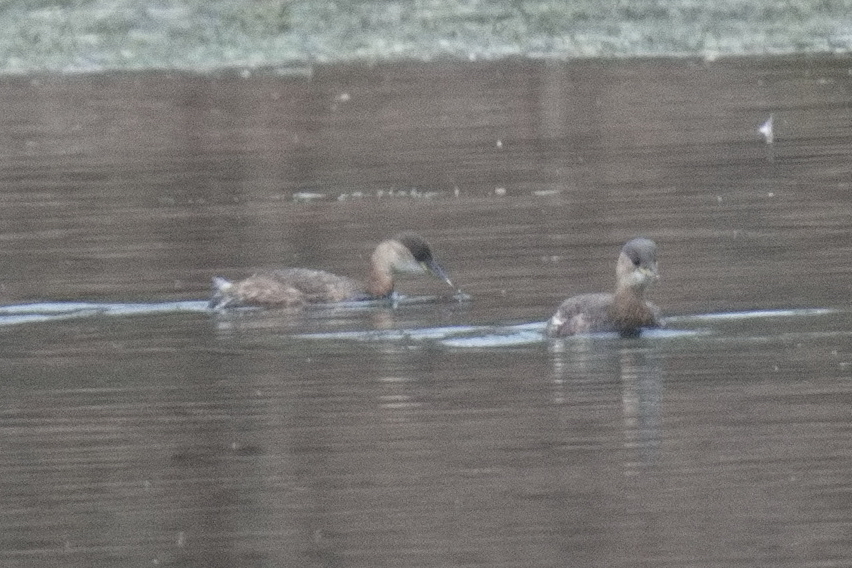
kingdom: Animalia
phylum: Chordata
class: Aves
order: Podicipediformes
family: Podicipedidae
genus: Tachybaptus
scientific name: Tachybaptus ruficollis
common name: Little grebe
